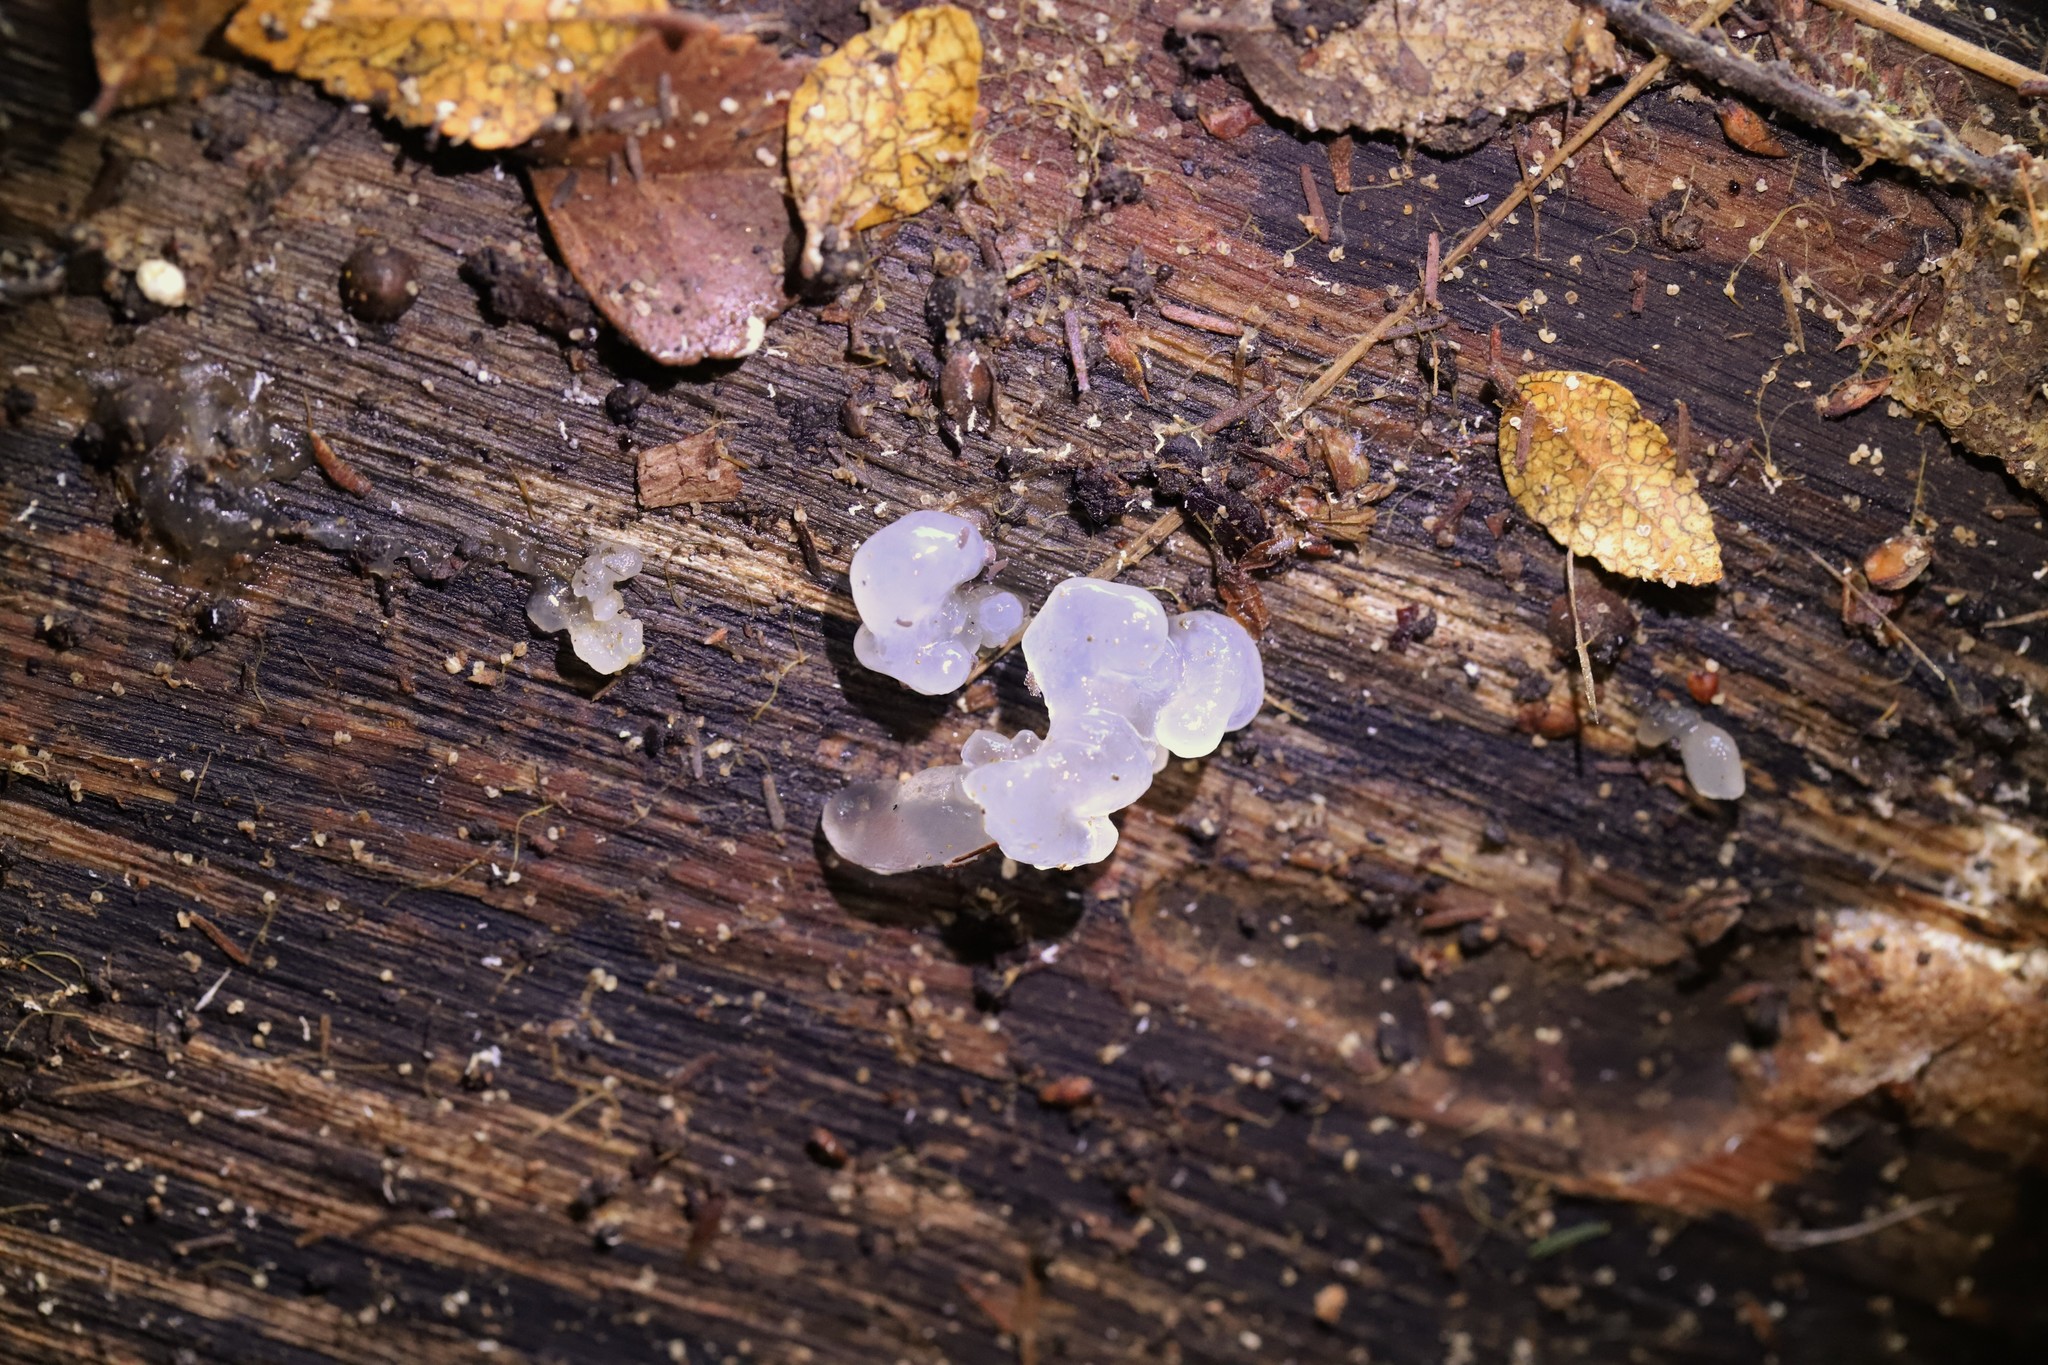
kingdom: Fungi
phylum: Basidiomycota
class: Tremellomycetes
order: Tremellales
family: Tremellaceae
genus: Tremella
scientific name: Tremella fuciformis
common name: Snow fungus
